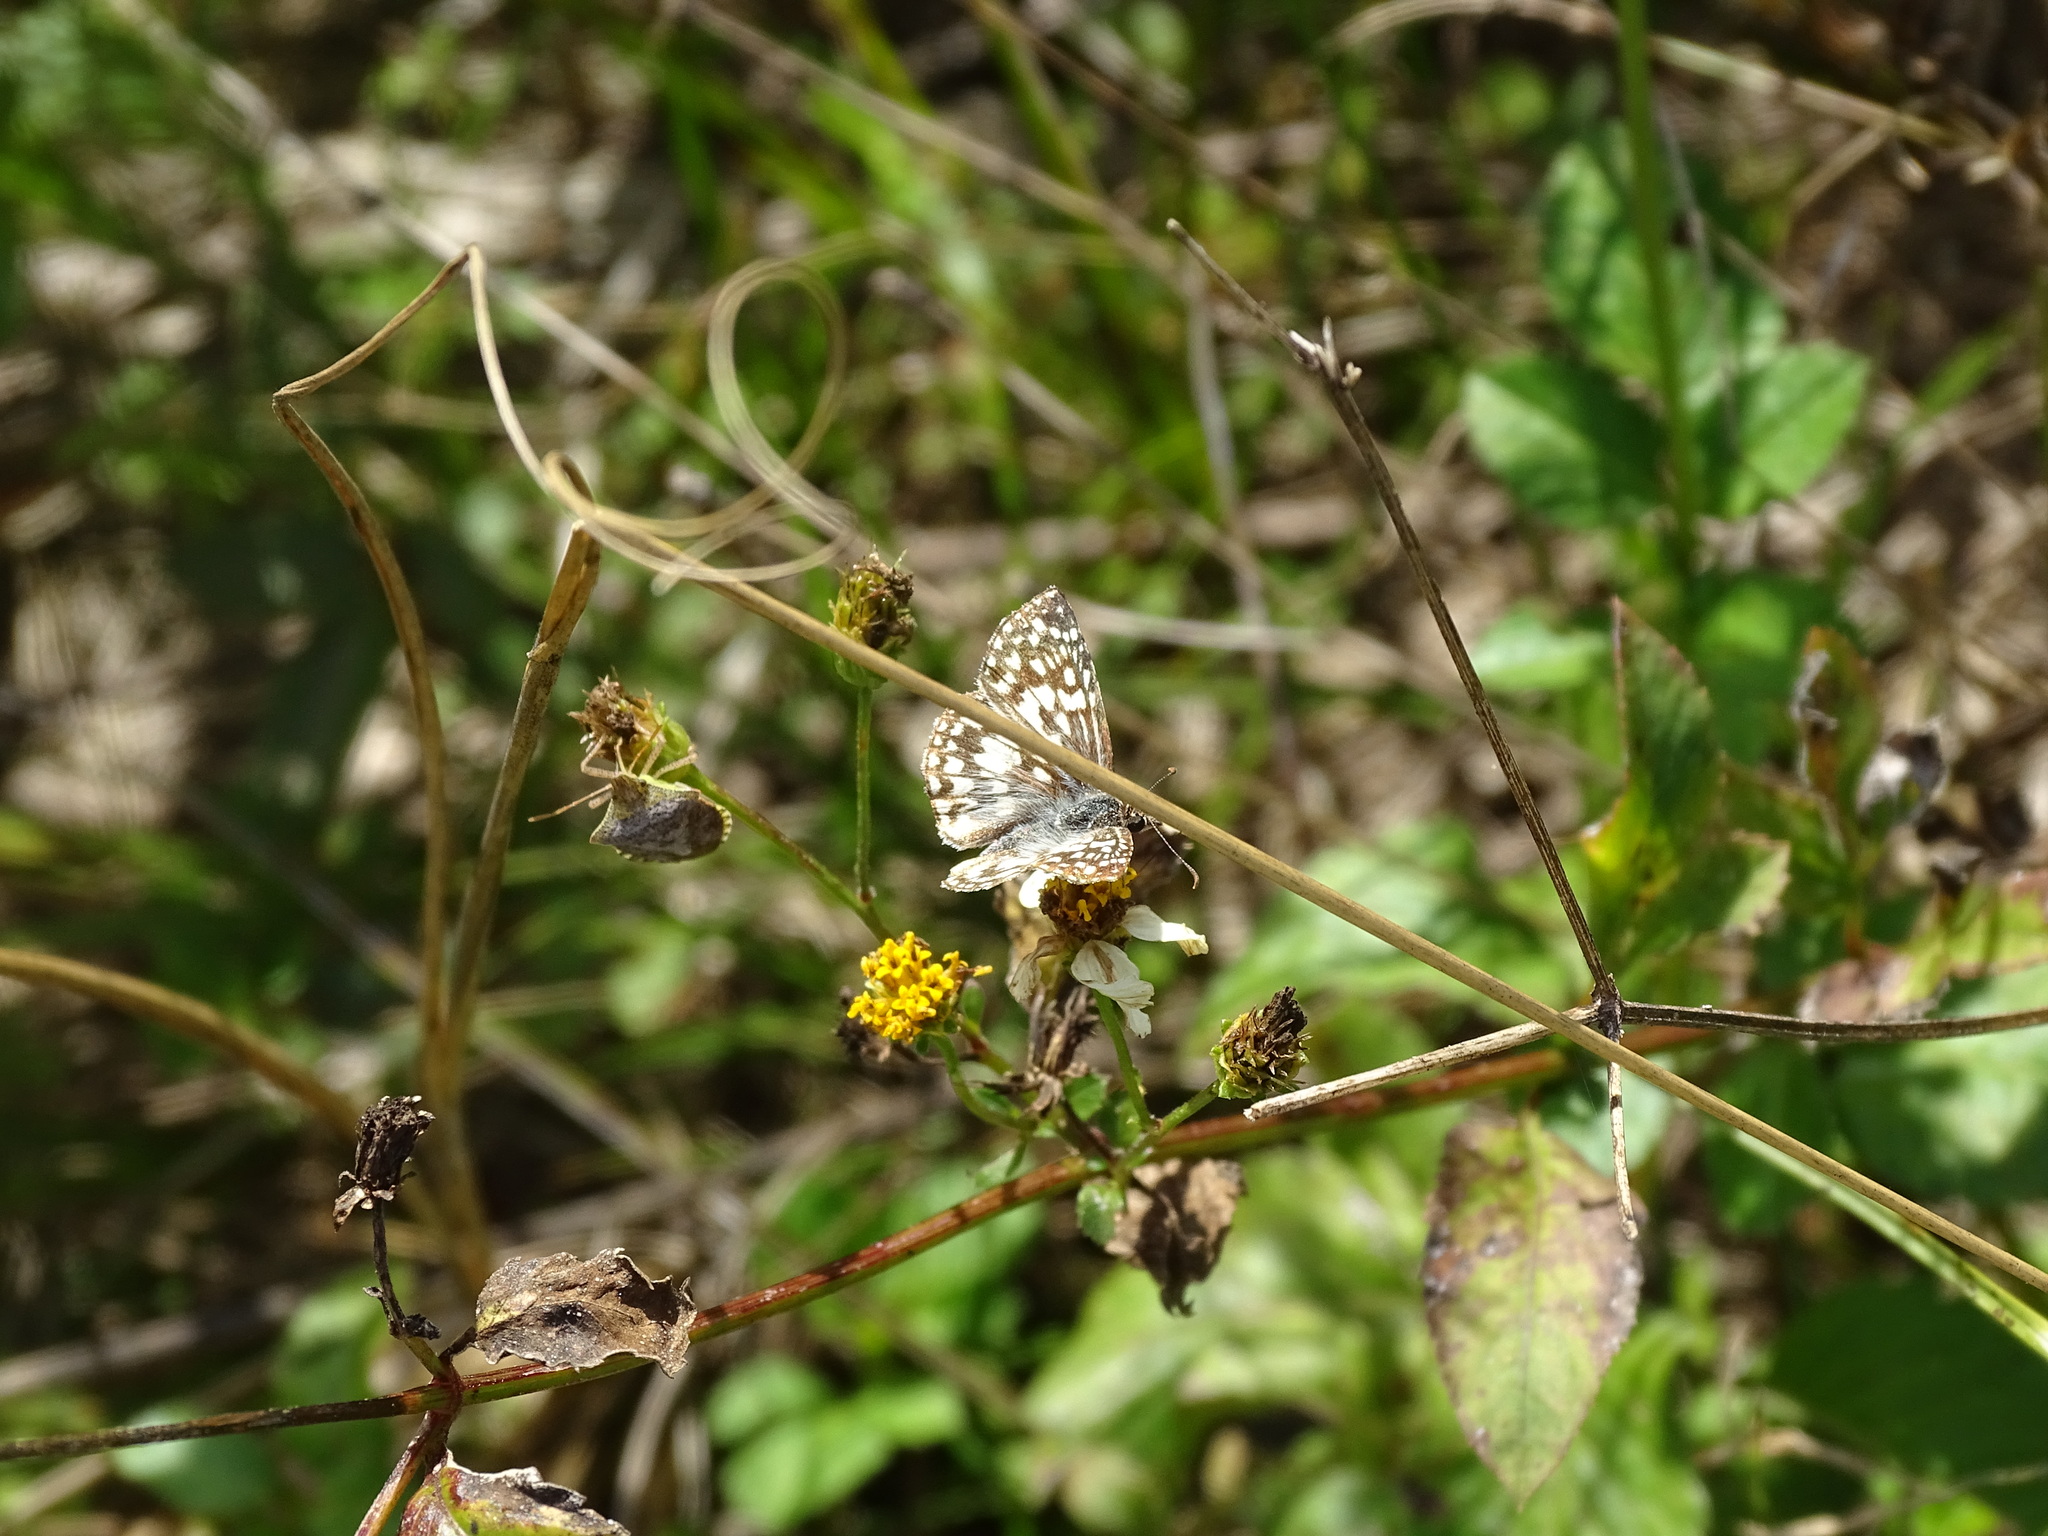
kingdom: Animalia
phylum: Arthropoda
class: Insecta
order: Lepidoptera
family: Hesperiidae
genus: Pyrgus
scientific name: Pyrgus oileus
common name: Tropical checkered-skipper
